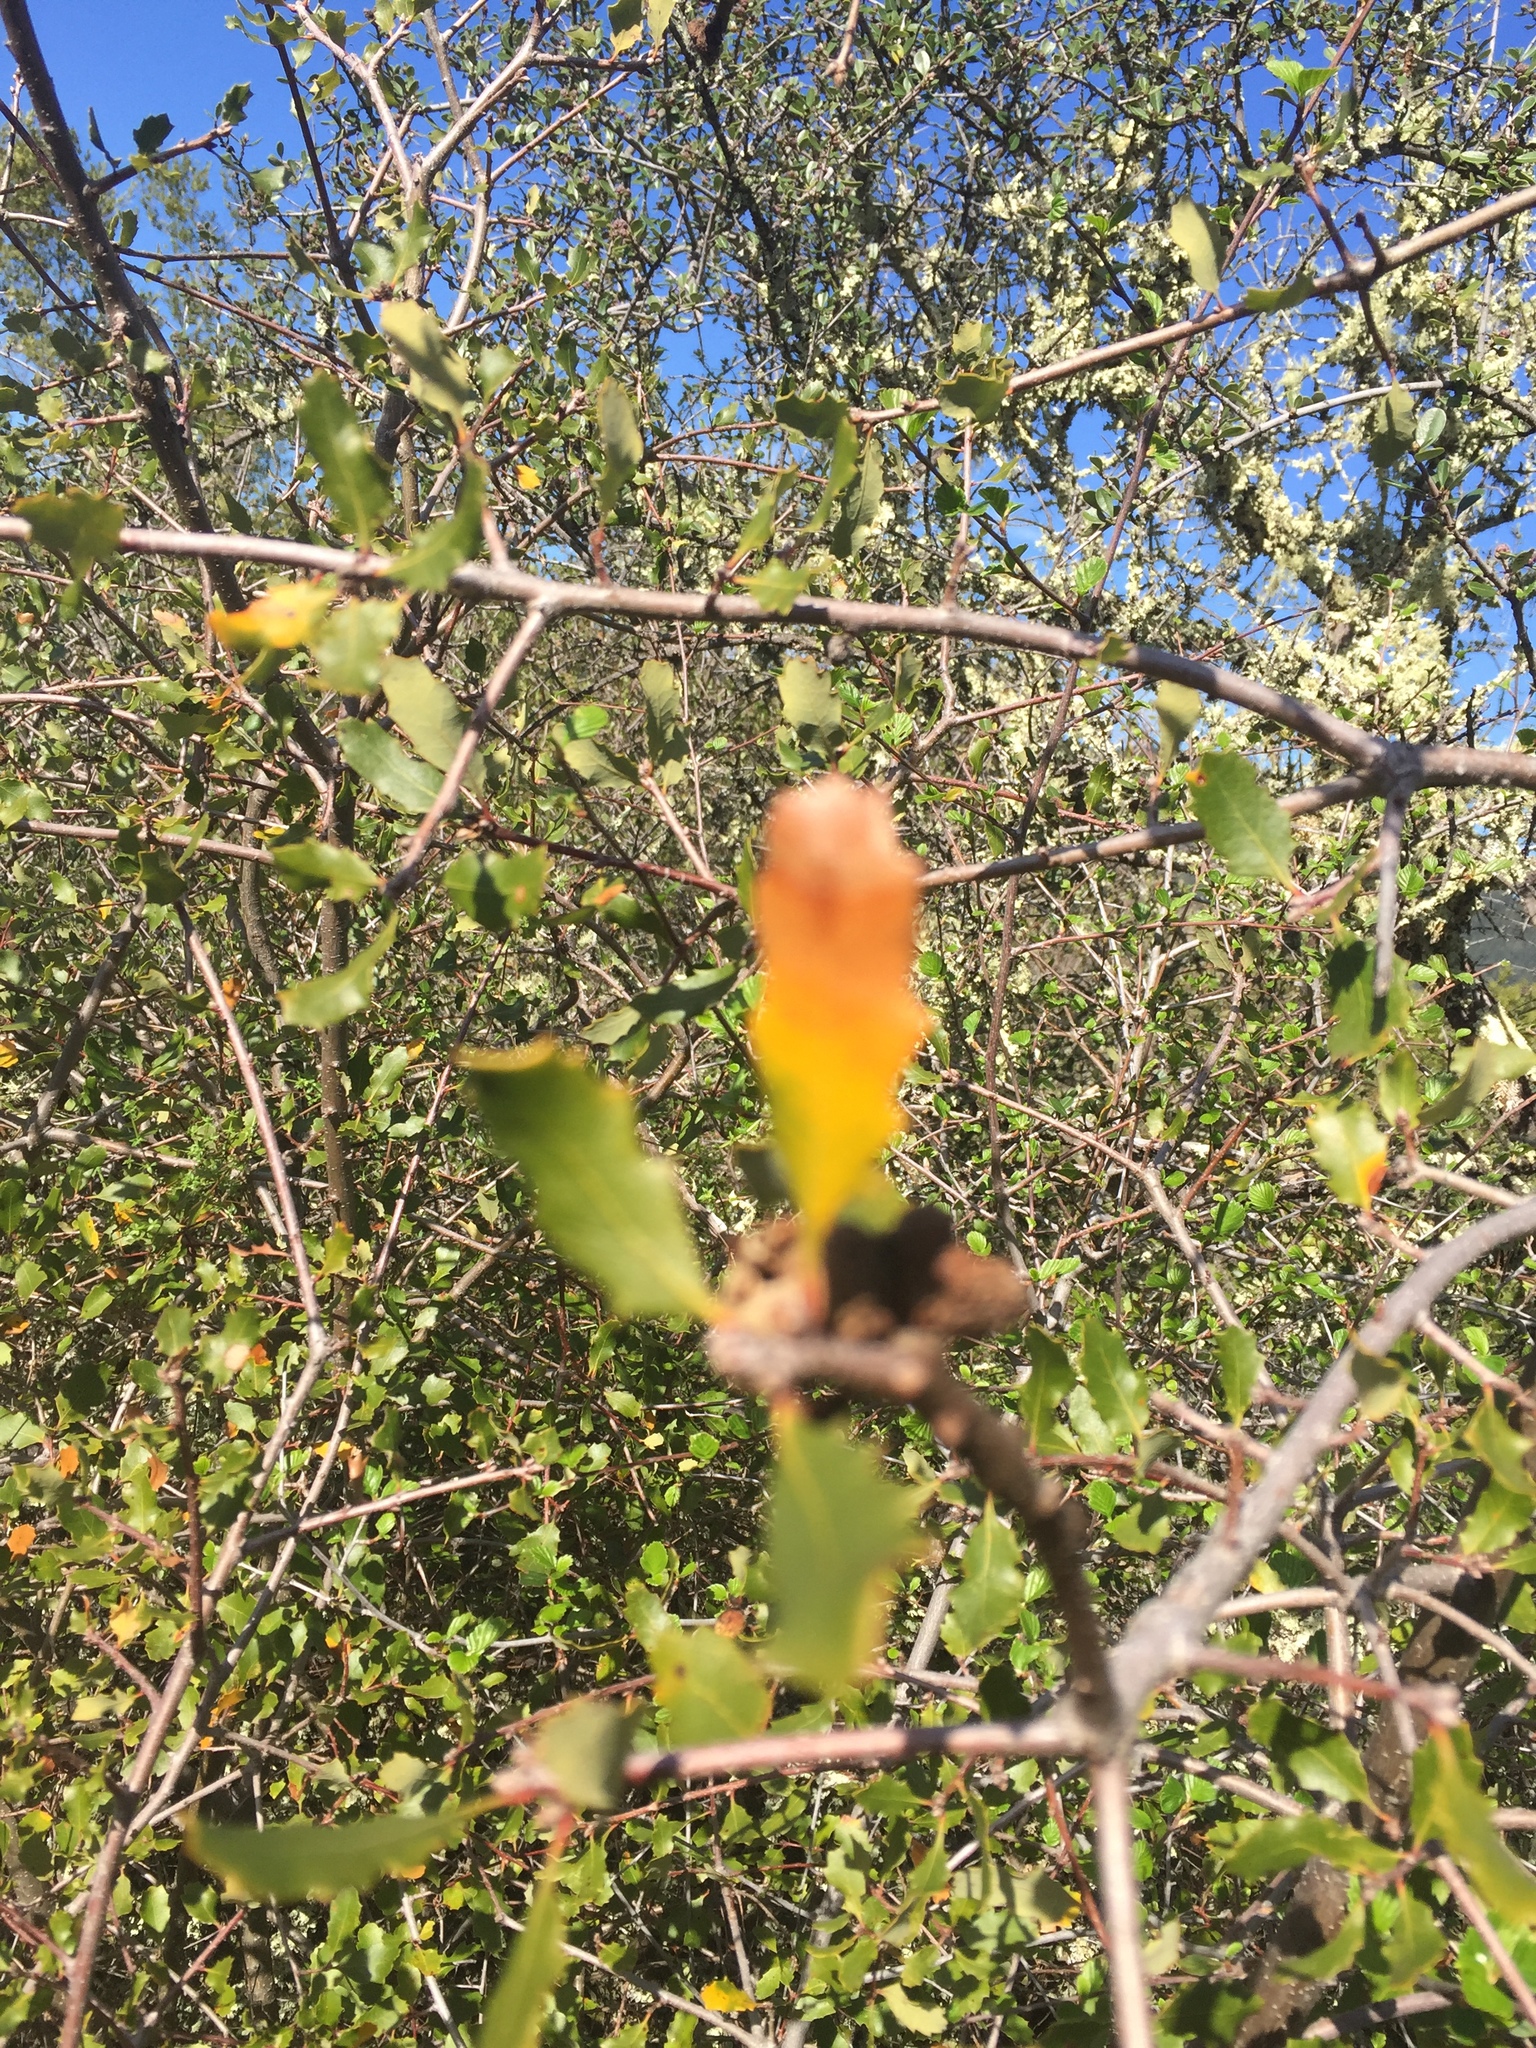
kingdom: Plantae
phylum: Tracheophyta
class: Magnoliopsida
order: Fagales
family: Fagaceae
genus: Quercus
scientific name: Quercus berberidifolia
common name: California scrub oak
